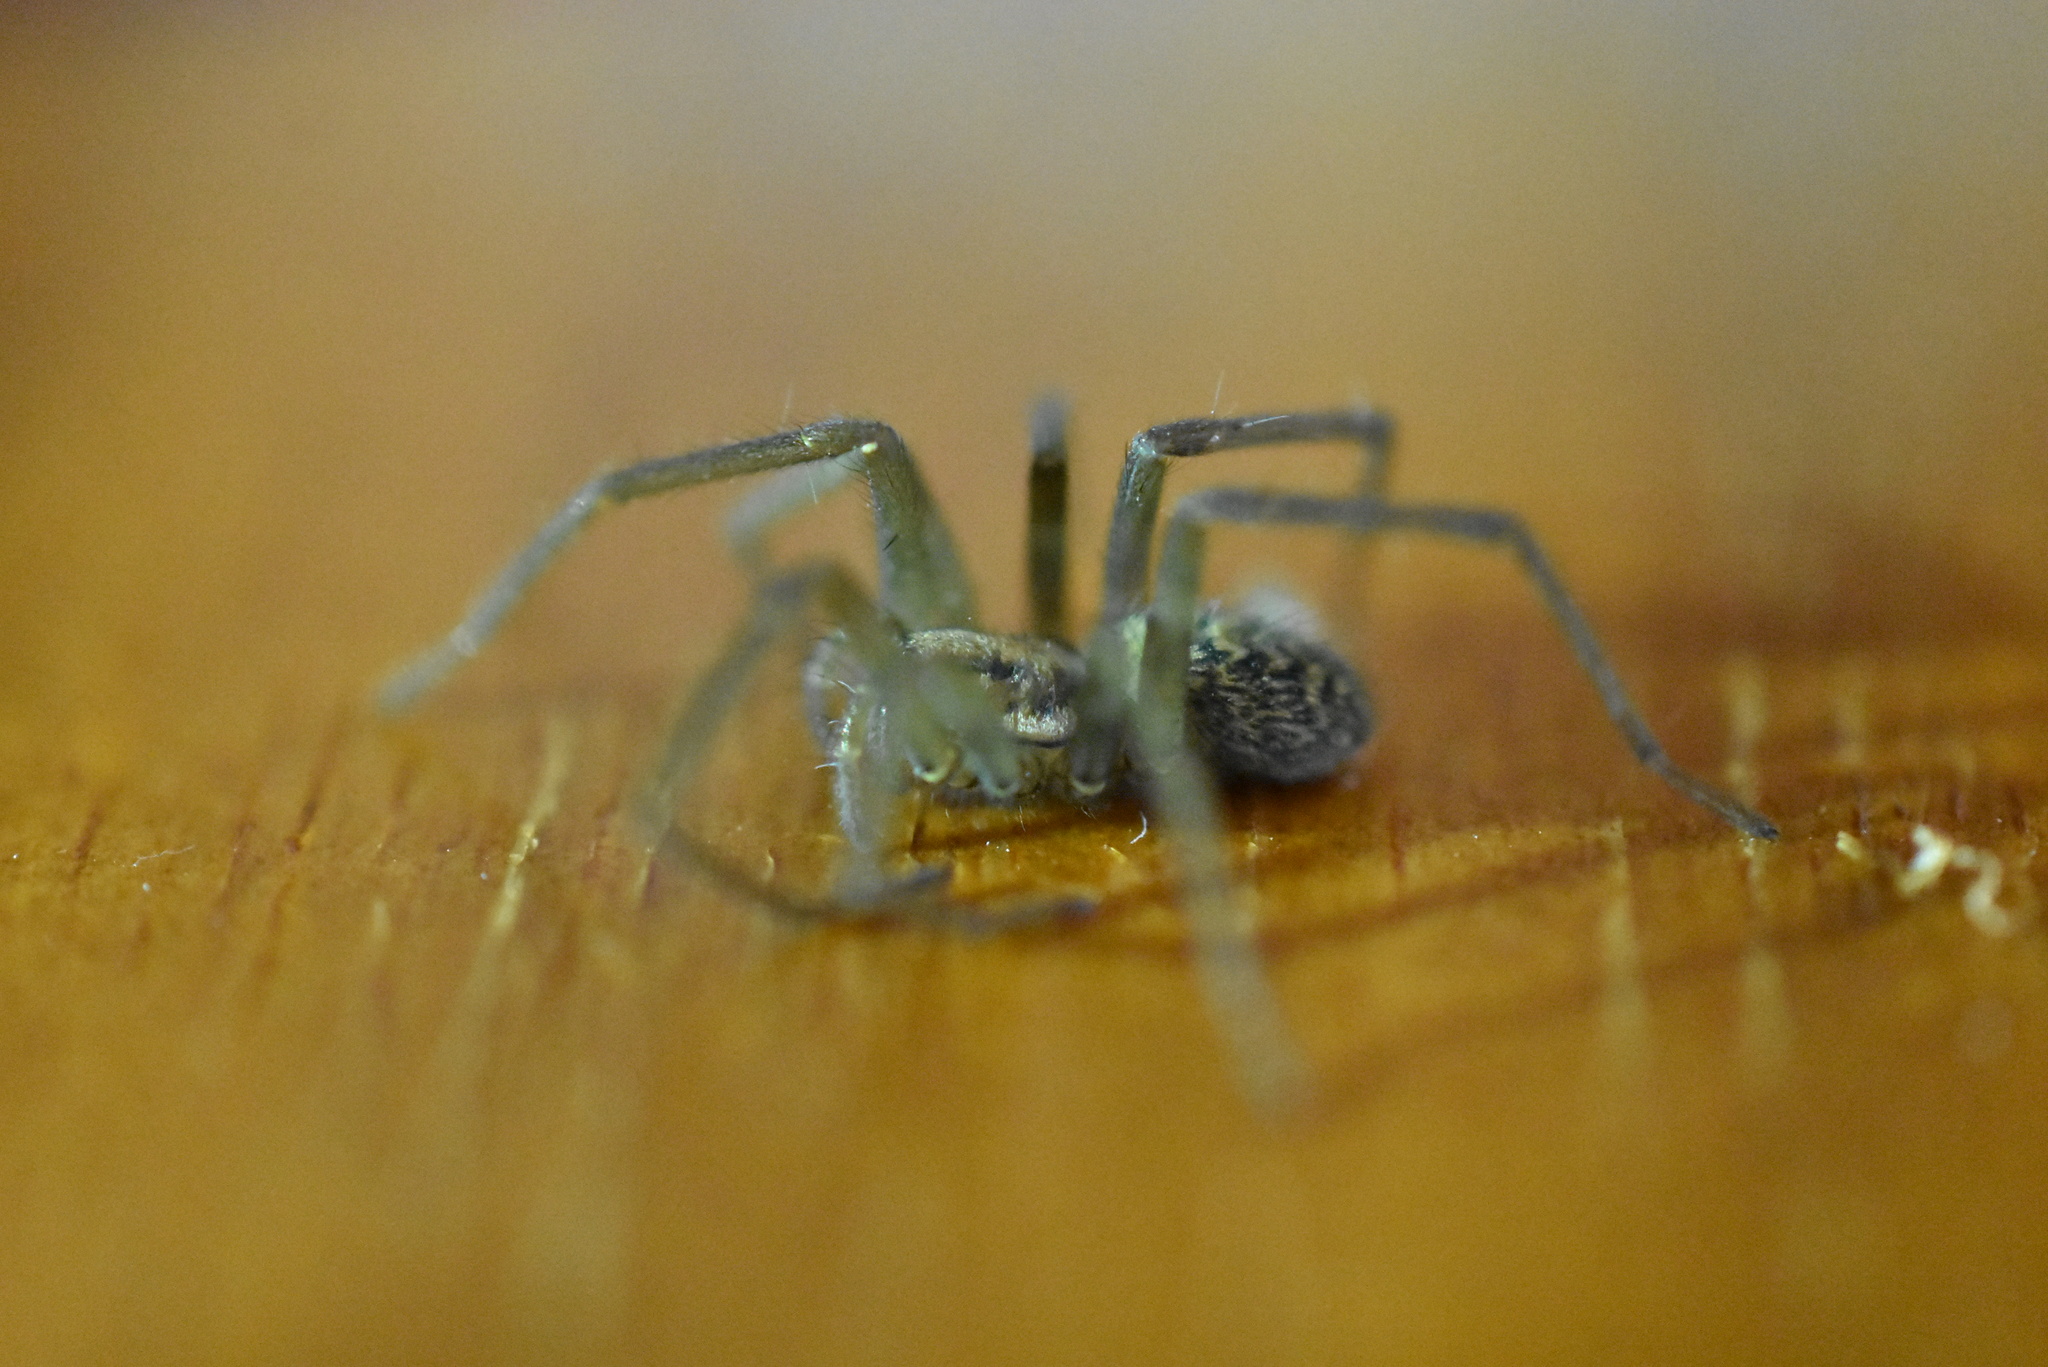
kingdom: Animalia
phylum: Arthropoda
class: Arachnida
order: Araneae
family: Agelenidae
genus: Eratigena
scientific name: Eratigena duellica
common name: Giant house spider
